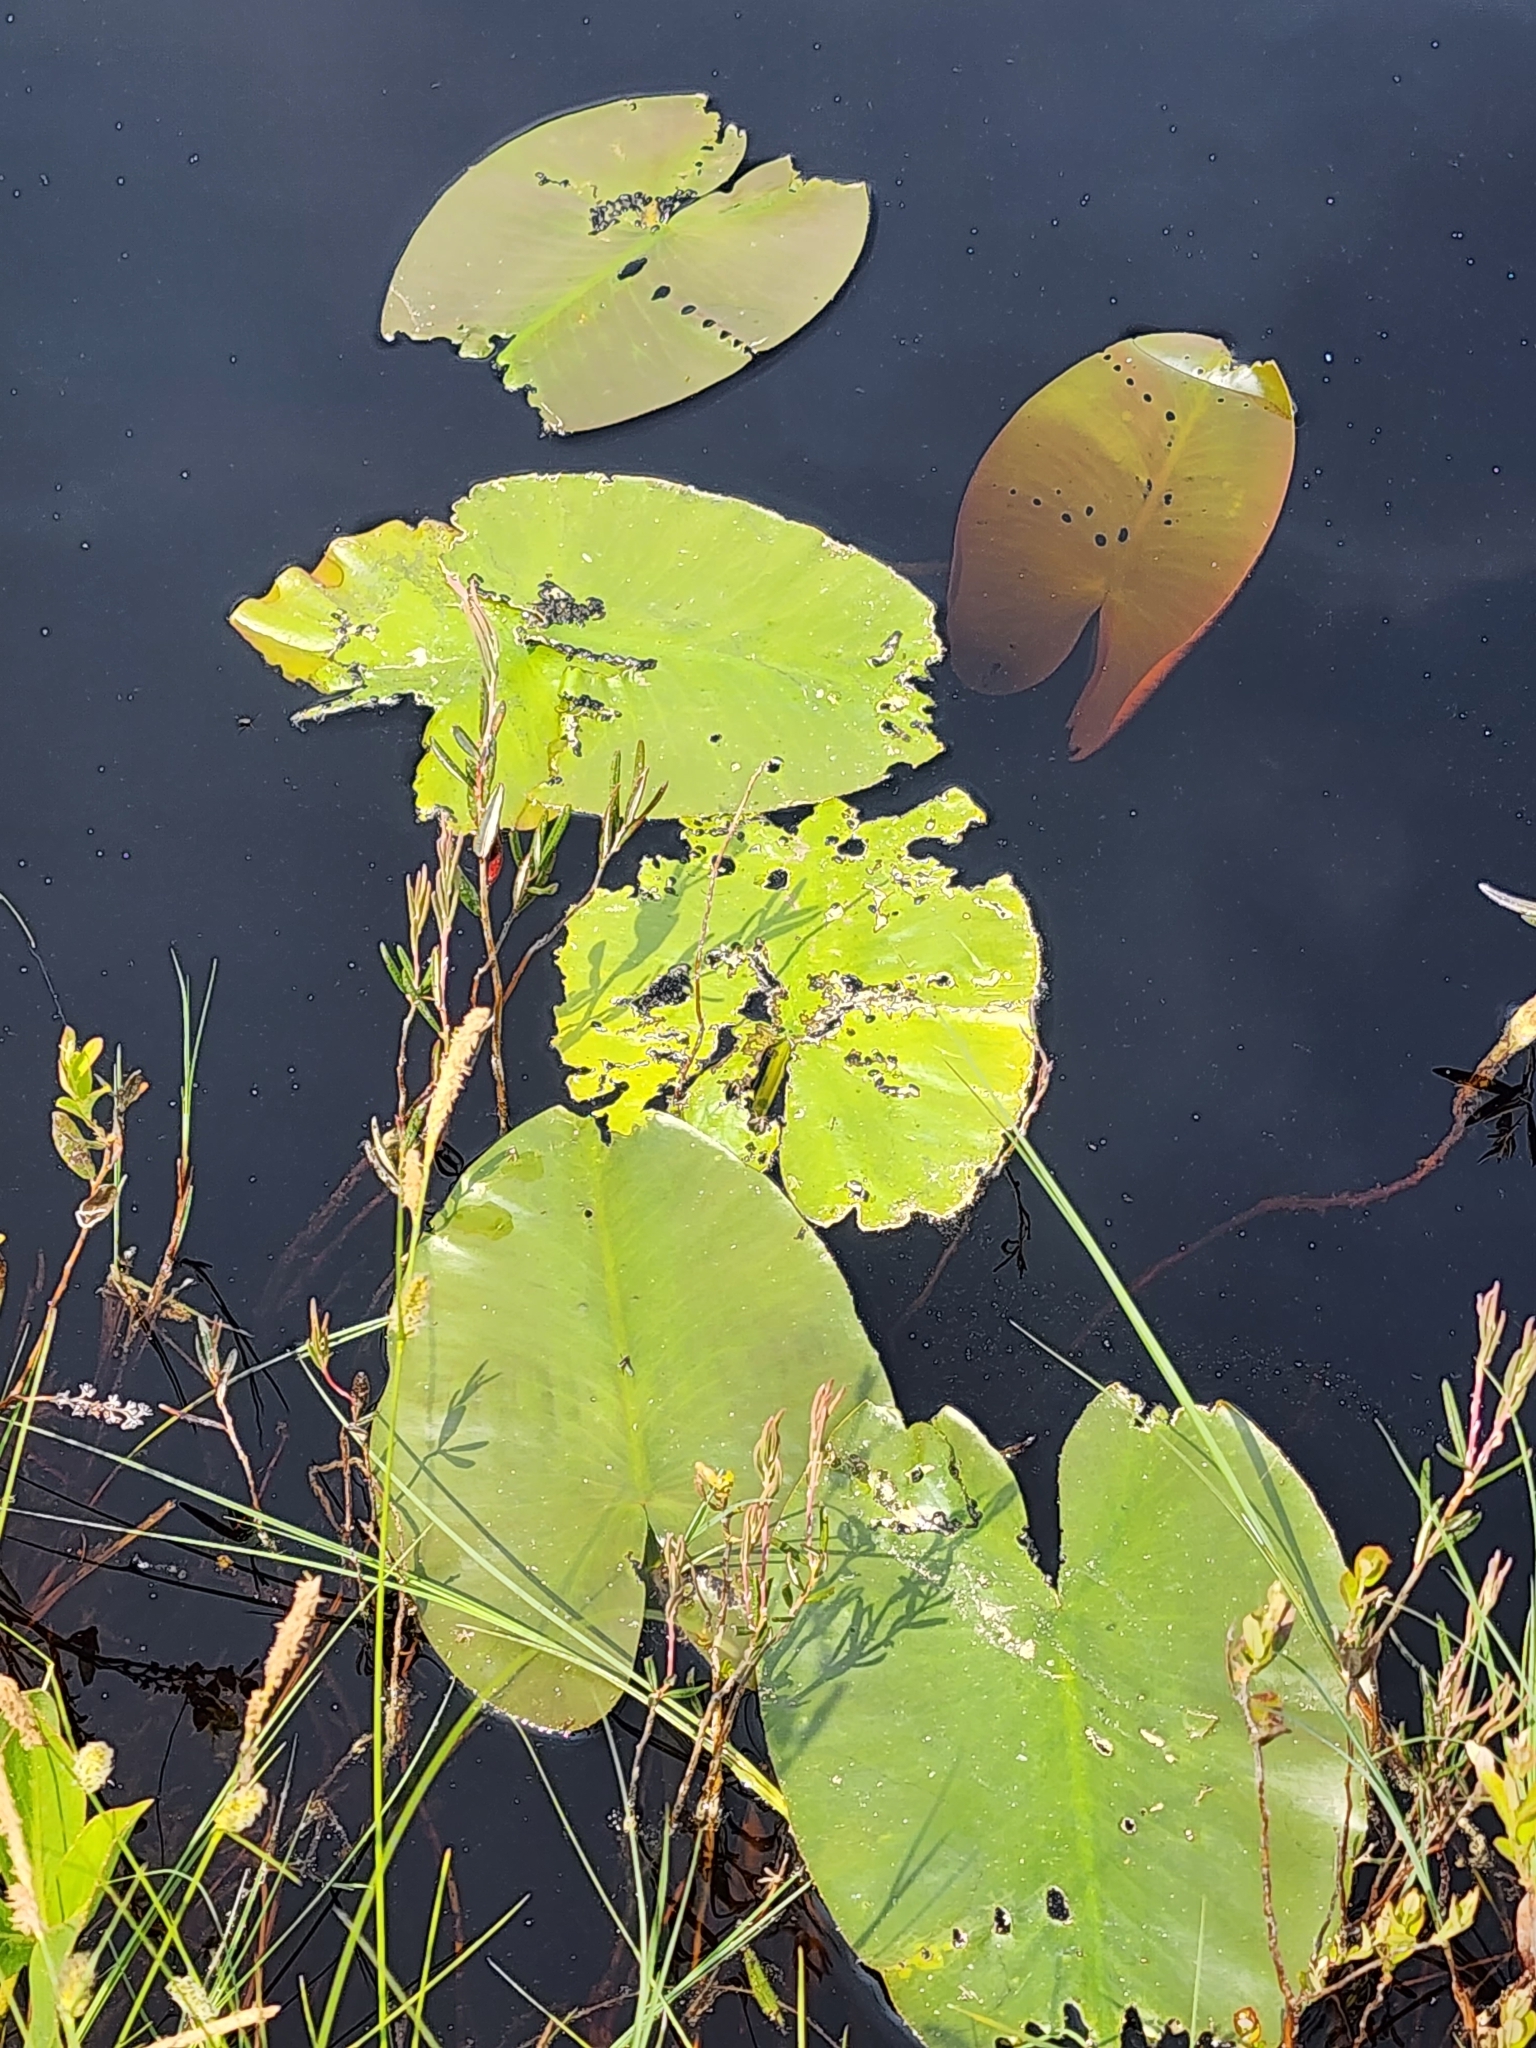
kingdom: Plantae
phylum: Tracheophyta
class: Magnoliopsida
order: Nymphaeales
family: Nymphaeaceae
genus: Nuphar
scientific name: Nuphar variegata
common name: Beaver-root
